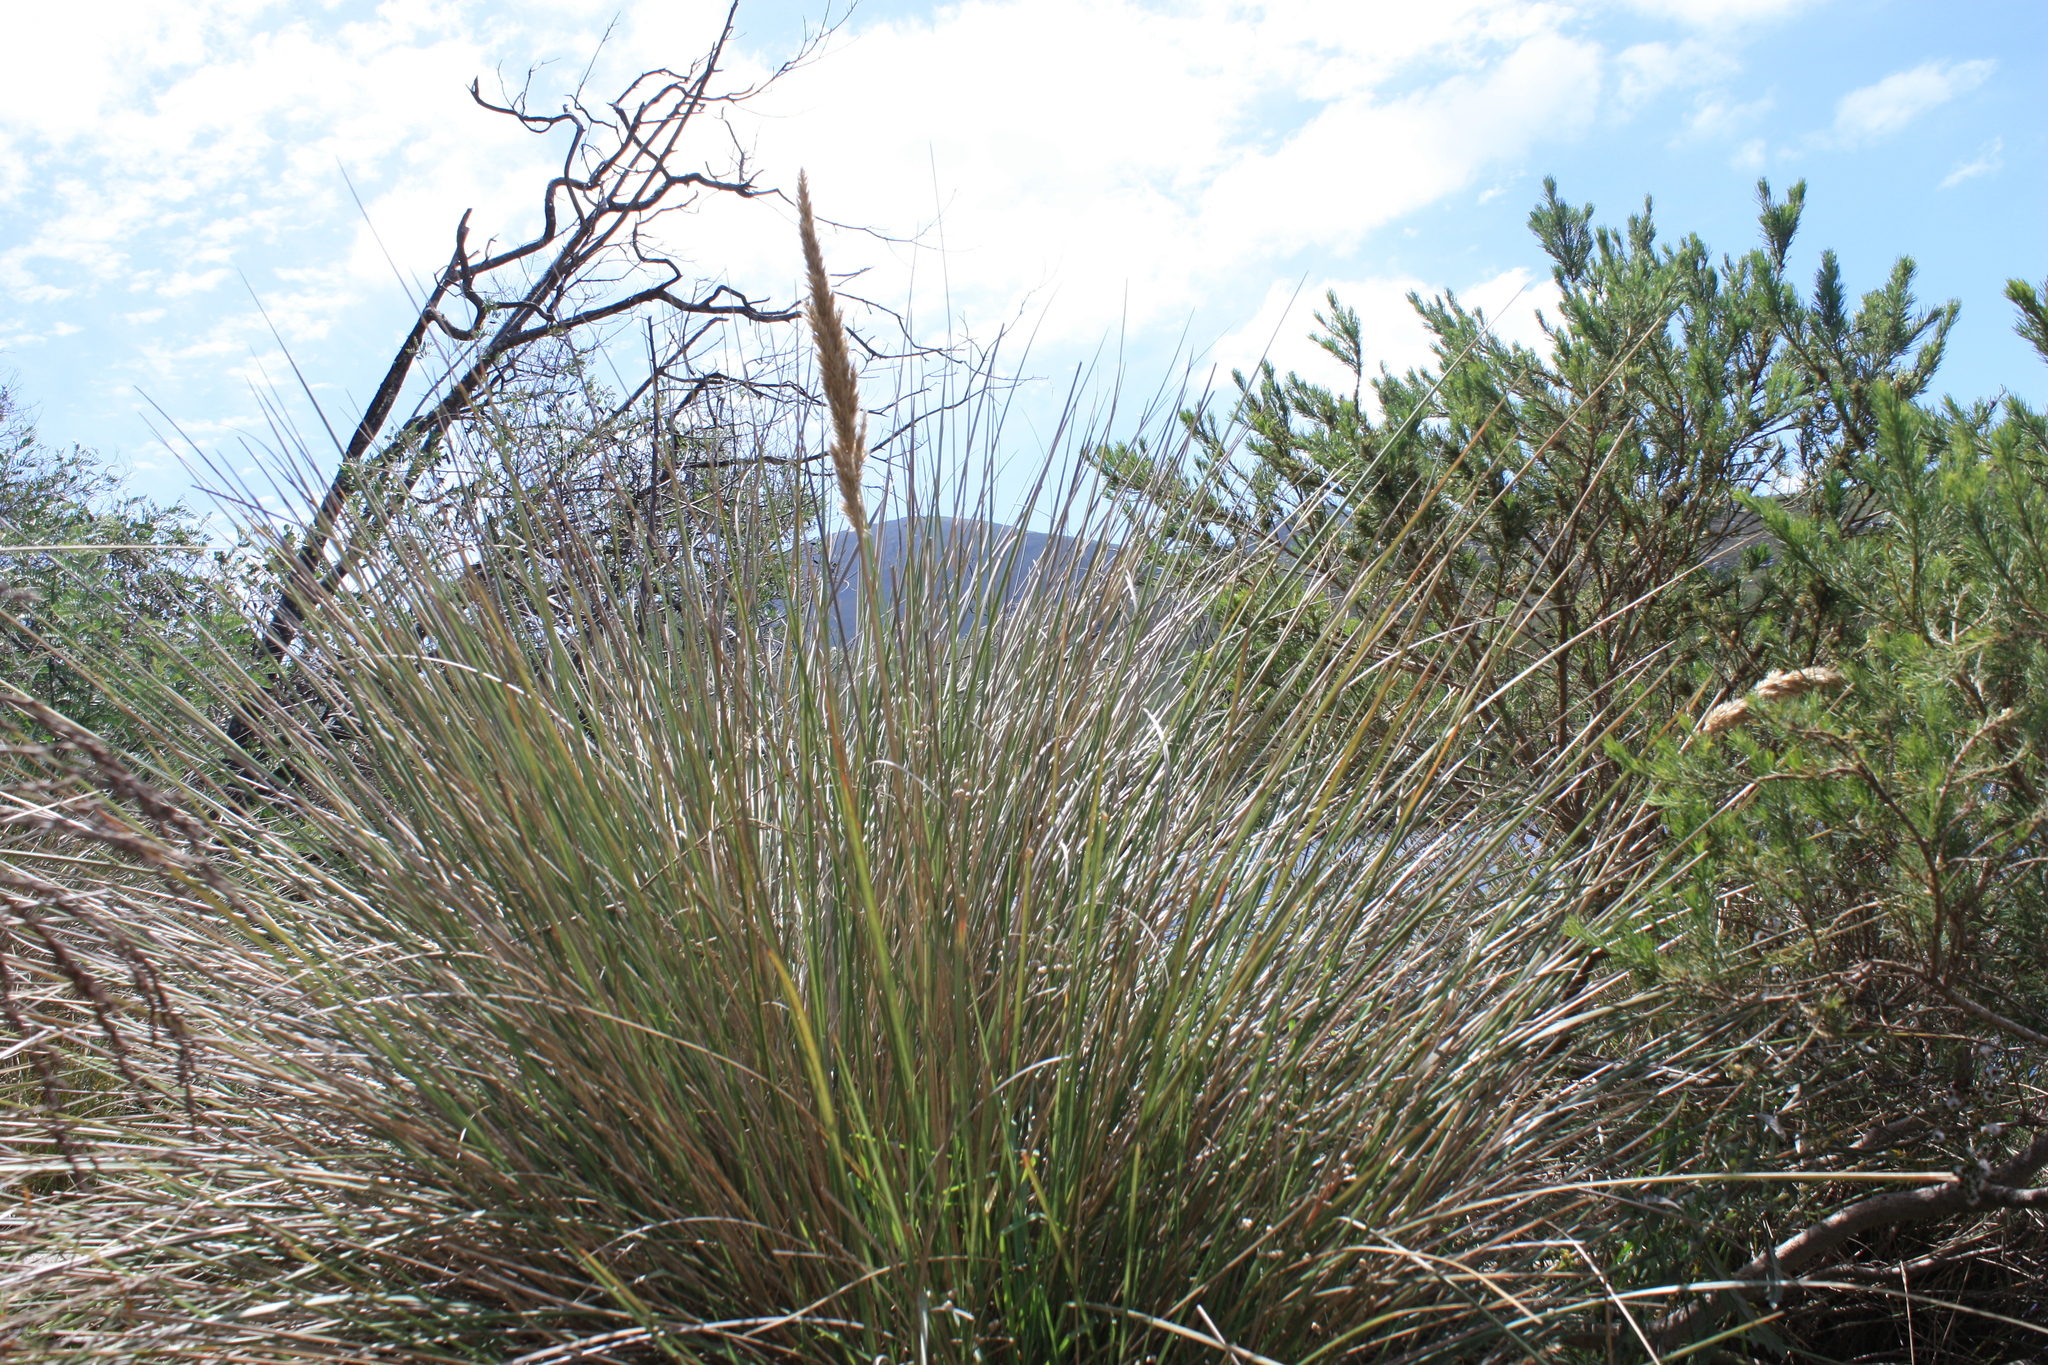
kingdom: Plantae
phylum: Tracheophyta
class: Liliopsida
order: Poales
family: Poaceae
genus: Capeochloa
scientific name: Capeochloa cincta
